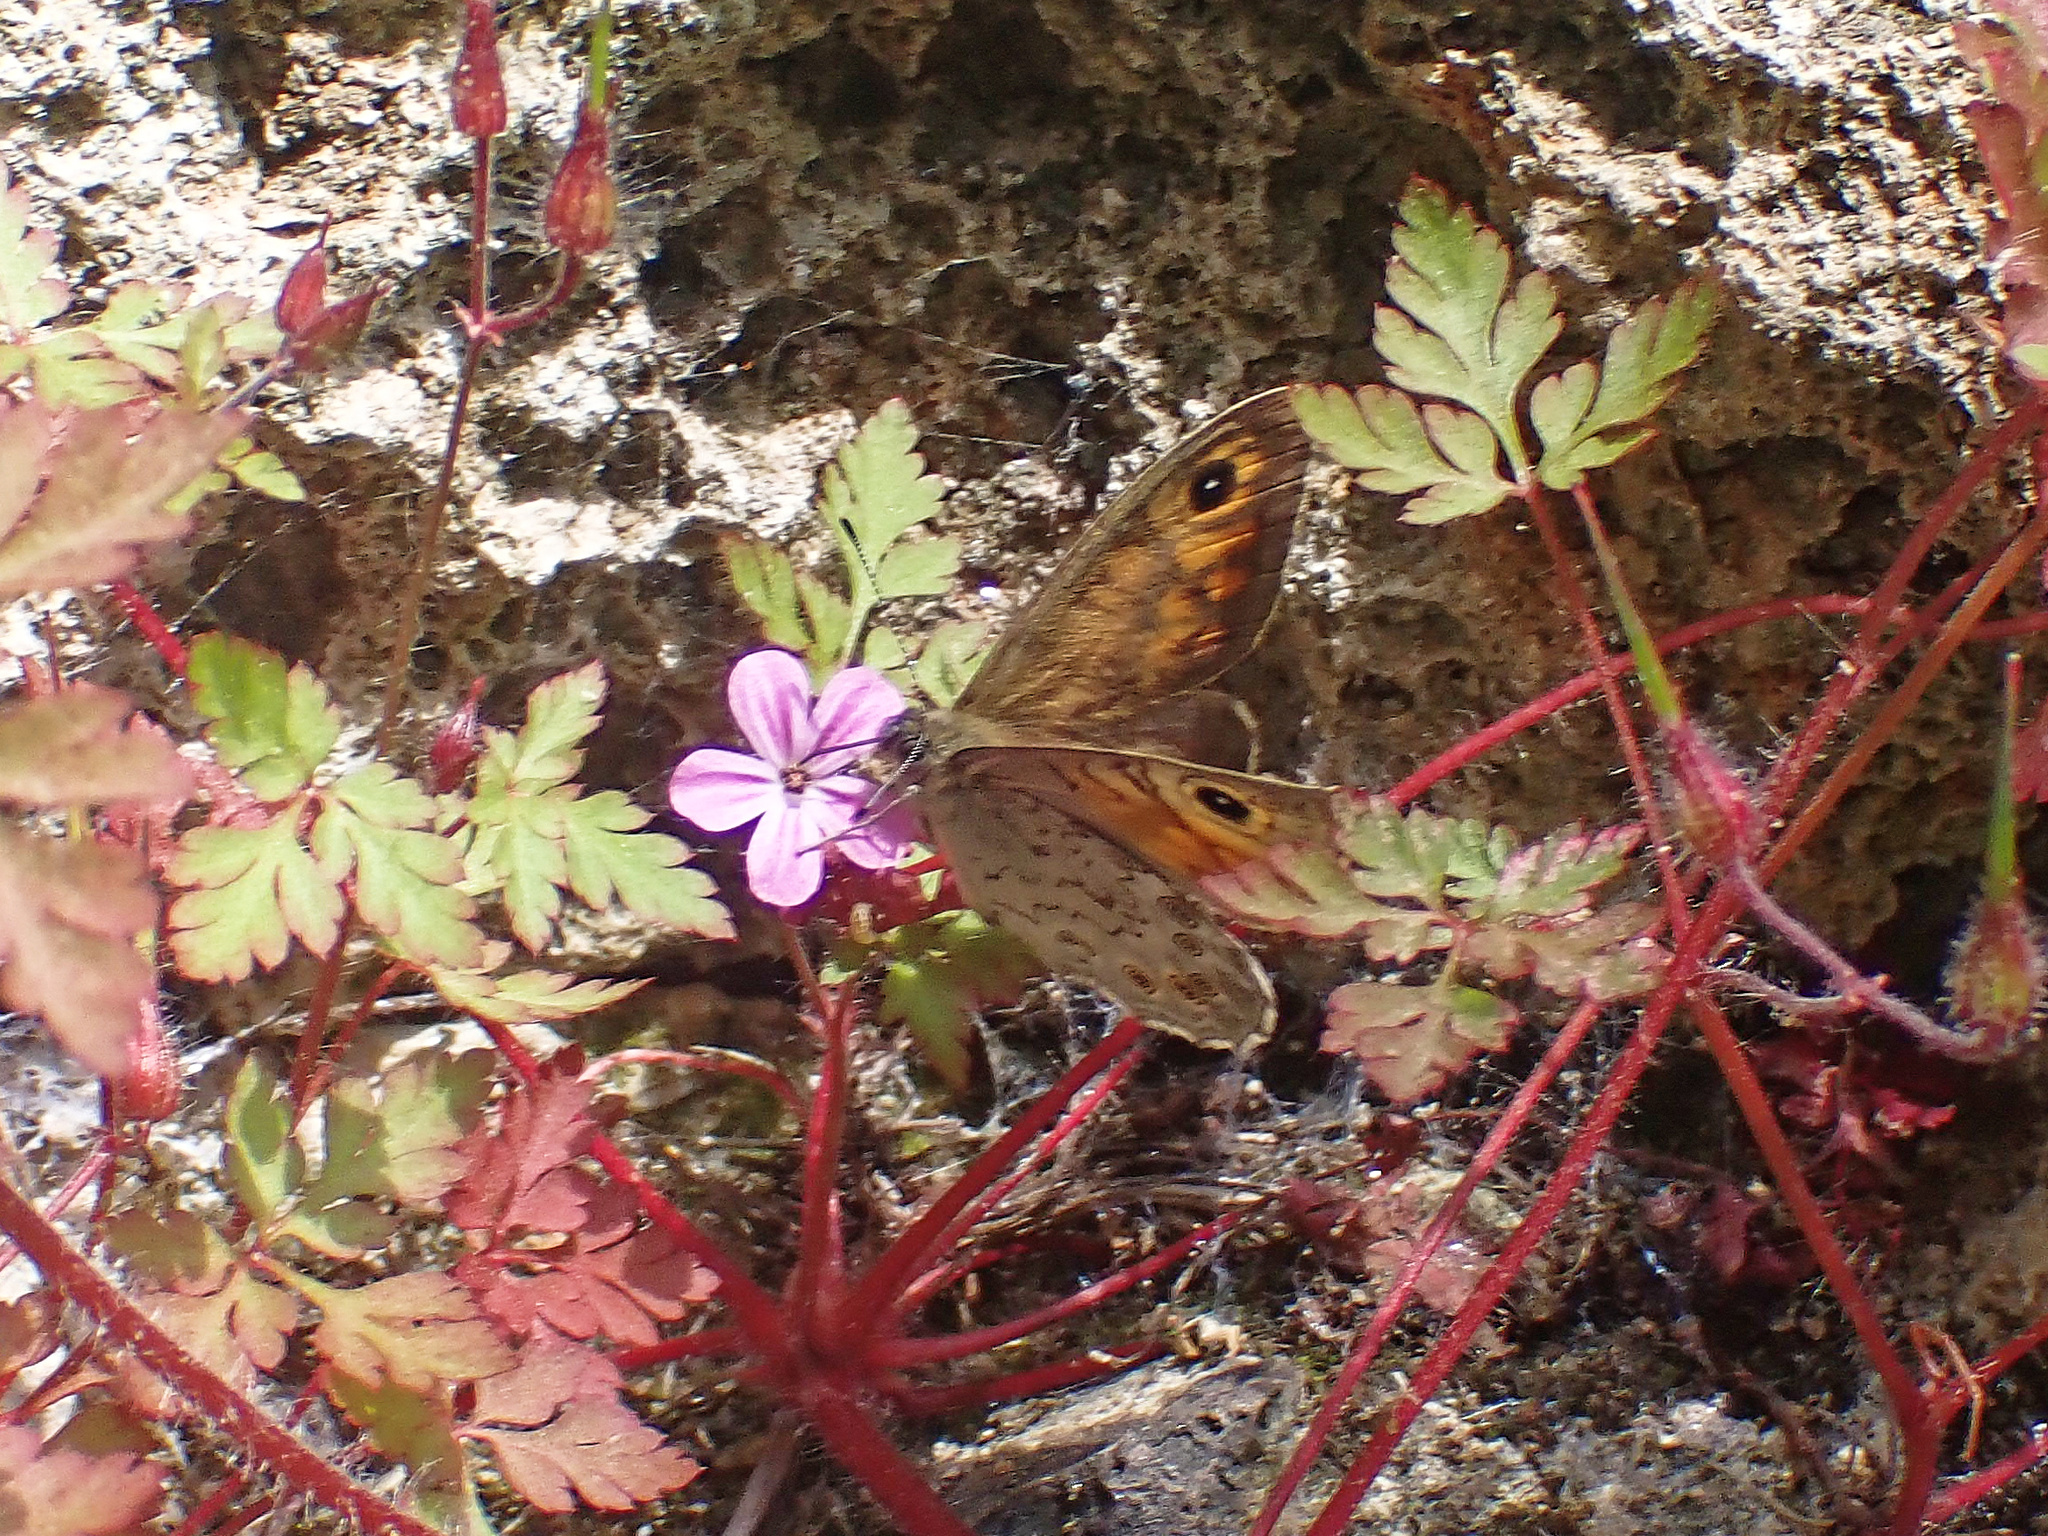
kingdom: Animalia
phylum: Arthropoda
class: Insecta
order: Lepidoptera
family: Nymphalidae
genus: Pararge
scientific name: Pararge Lasiommata maera
